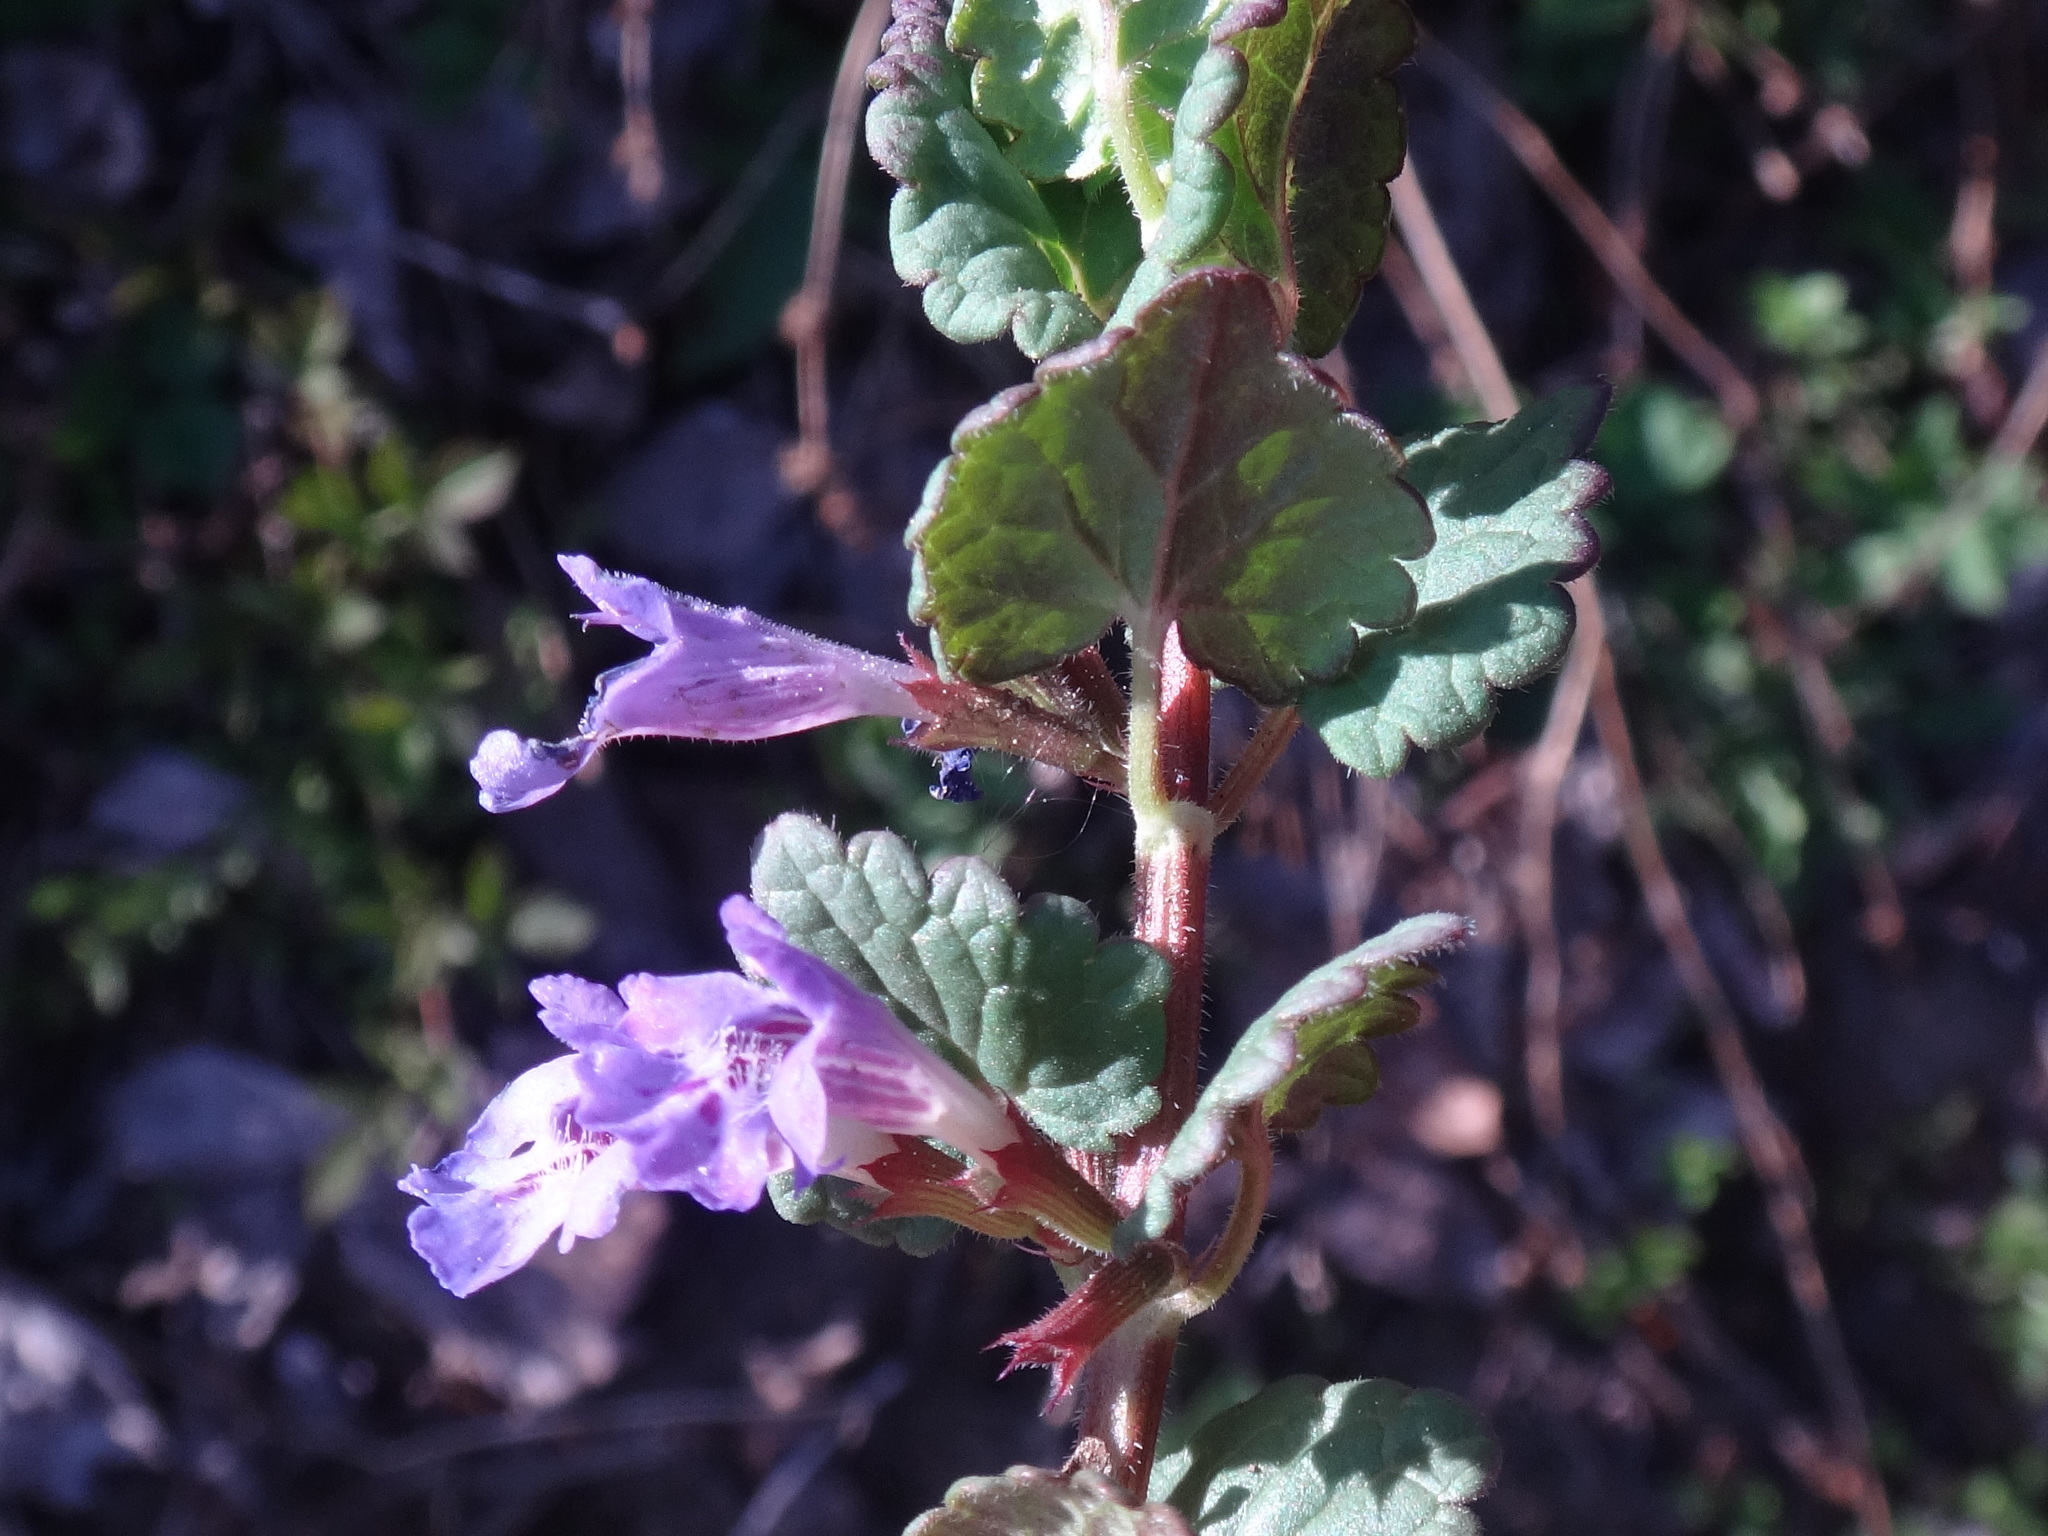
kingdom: Plantae
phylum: Tracheophyta
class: Magnoliopsida
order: Lamiales
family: Lamiaceae
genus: Glechoma
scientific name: Glechoma hederacea
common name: Ground ivy
